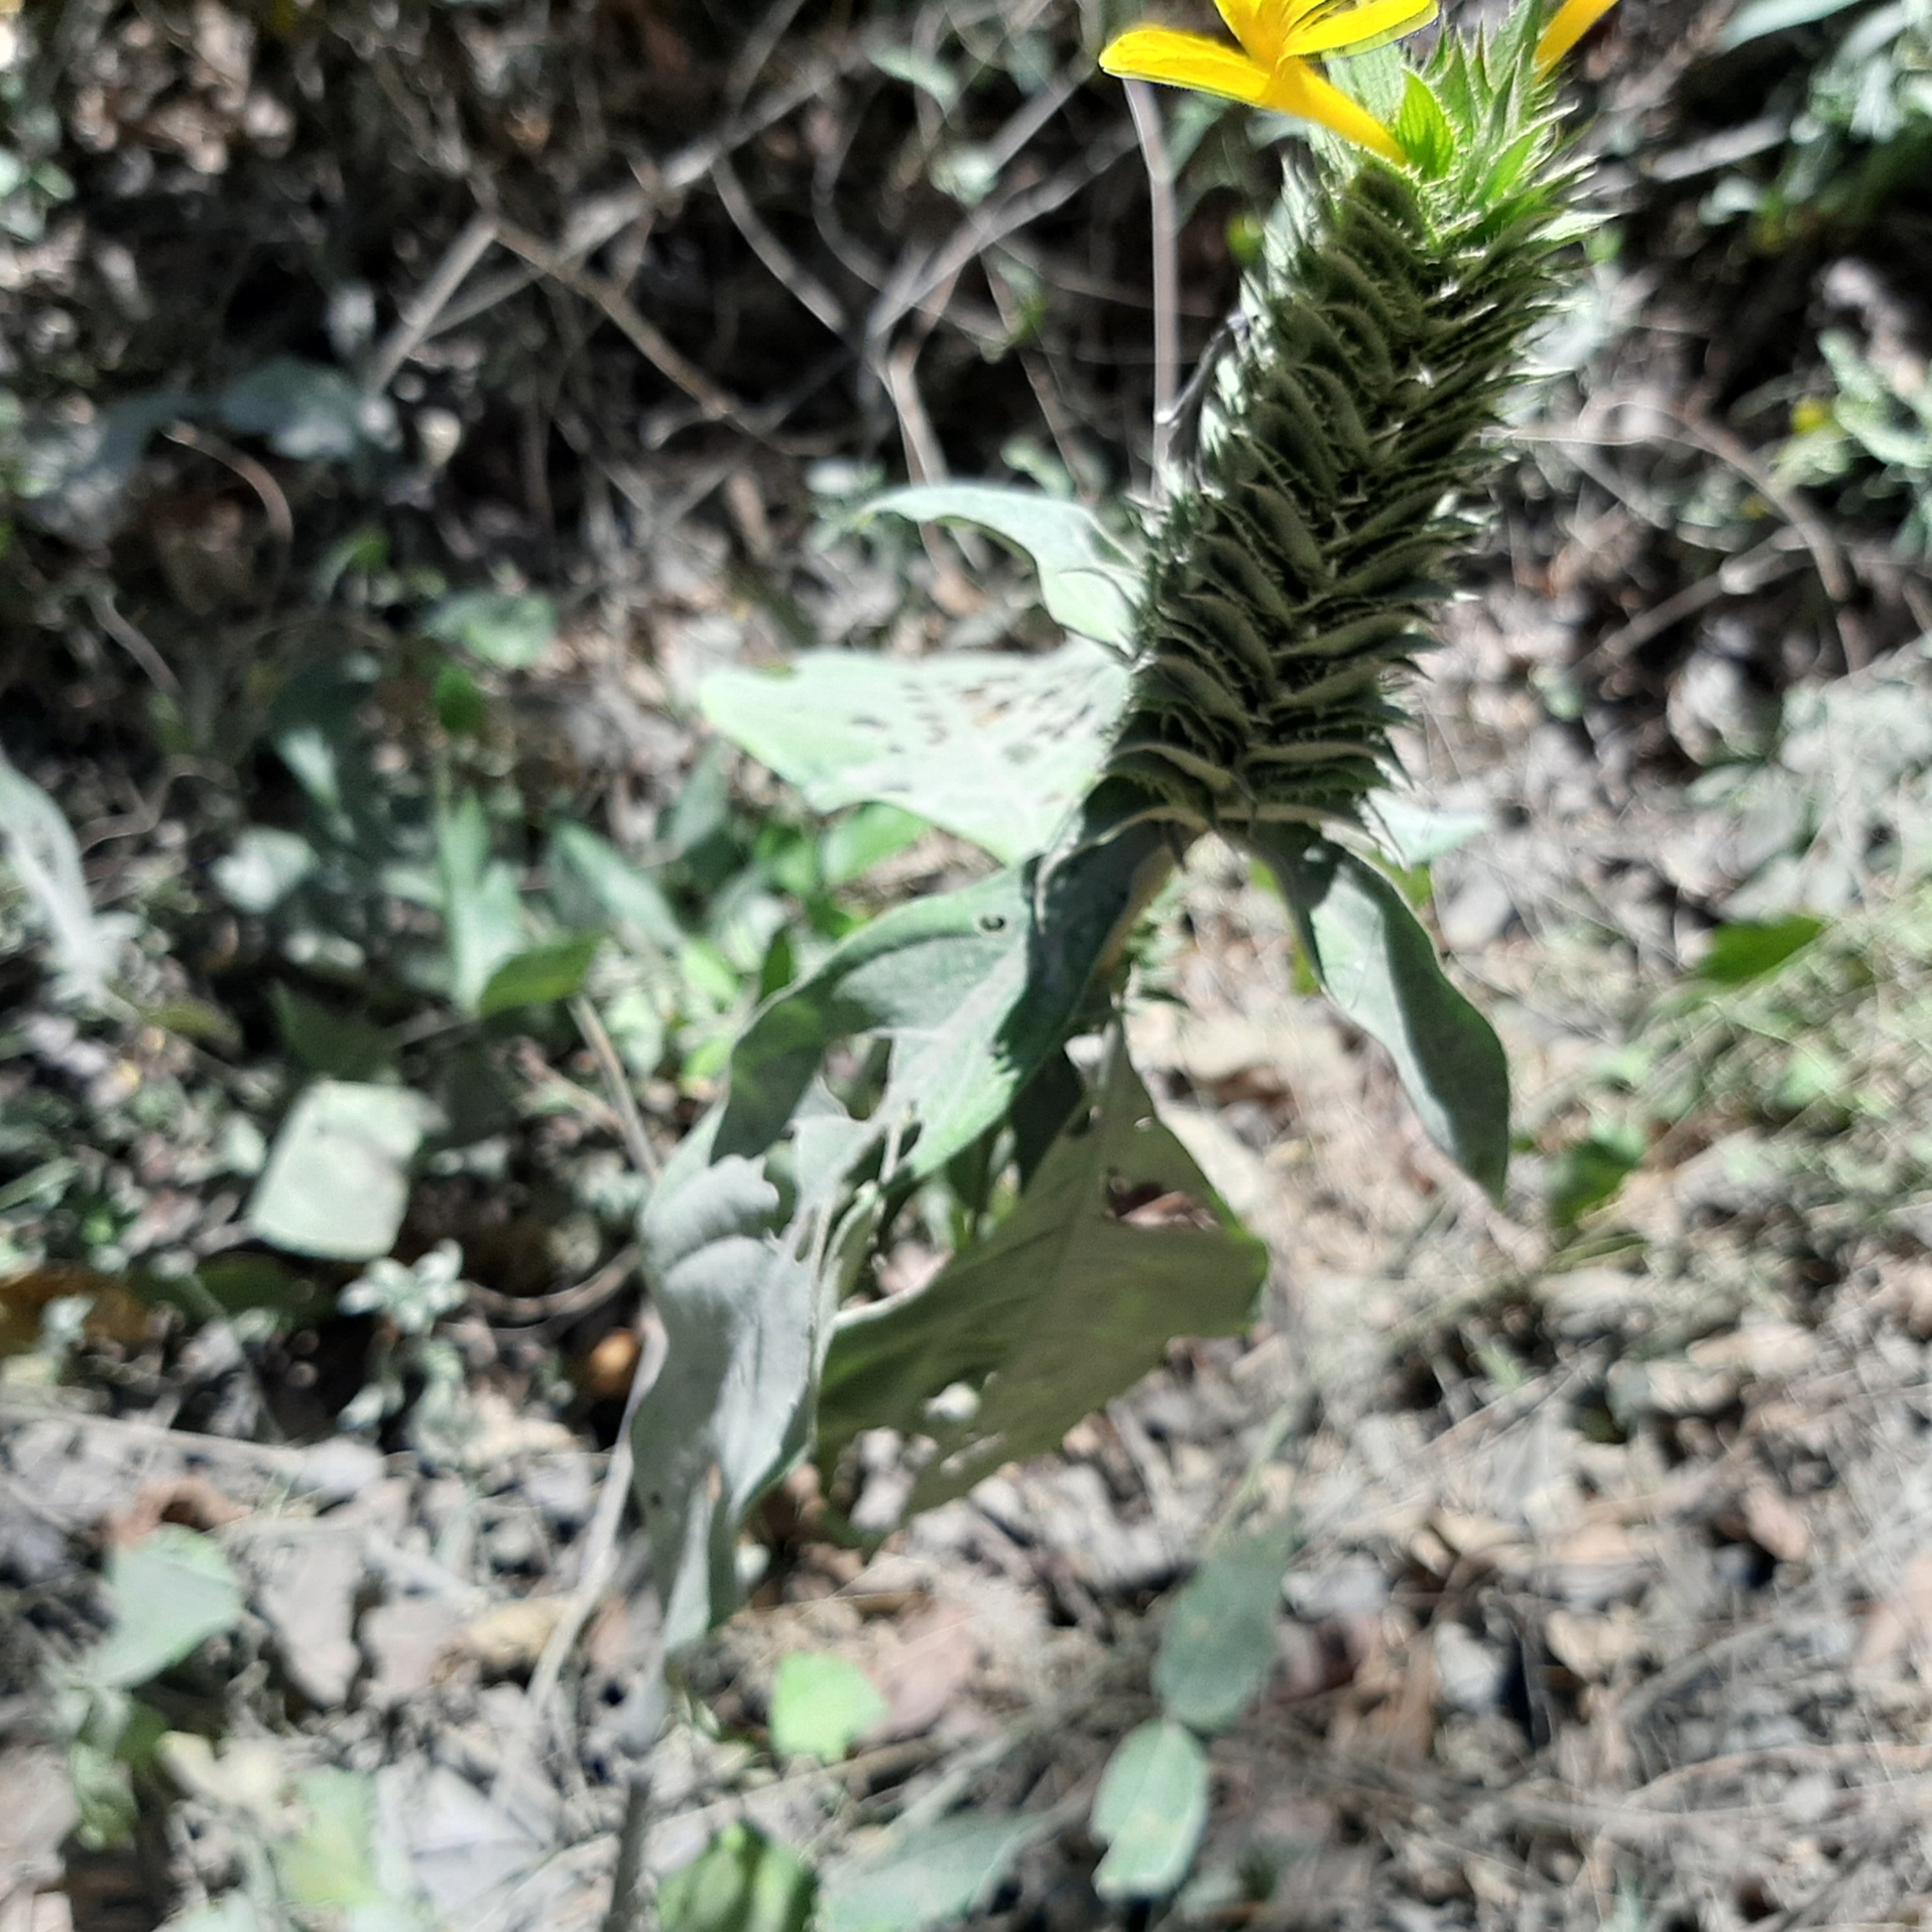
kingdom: Plantae
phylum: Tracheophyta
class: Magnoliopsida
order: Lamiales
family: Acanthaceae
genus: Barleria
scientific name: Barleria oenotheroides
